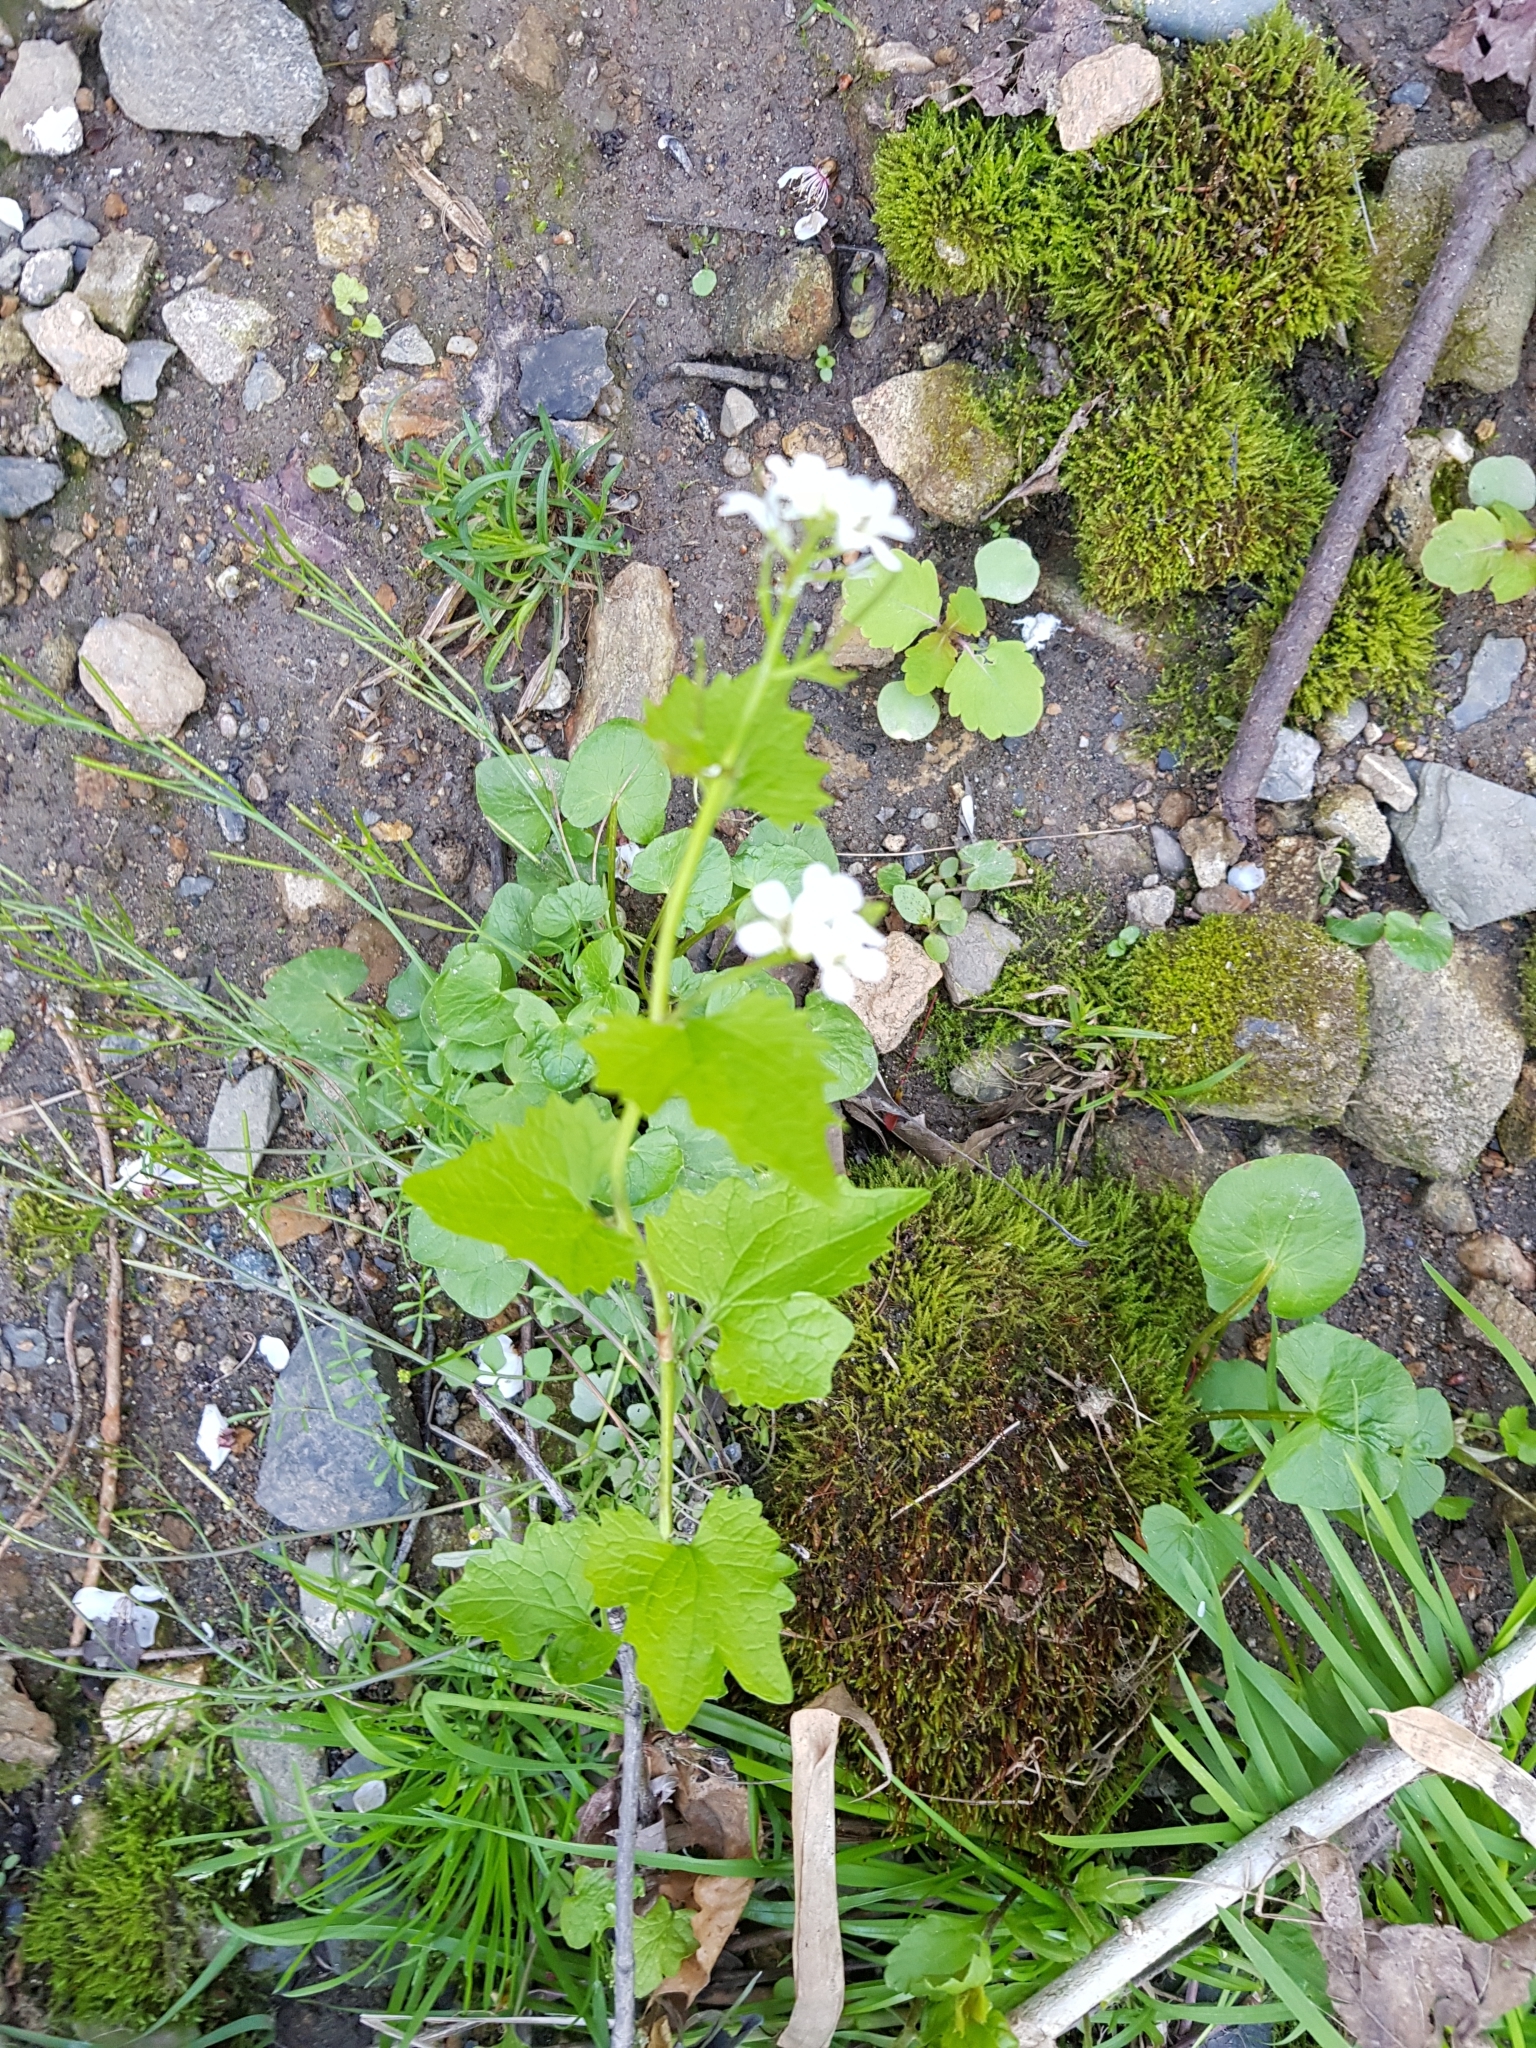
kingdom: Plantae
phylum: Tracheophyta
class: Magnoliopsida
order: Brassicales
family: Brassicaceae
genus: Alliaria
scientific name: Alliaria petiolata
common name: Garlic mustard
